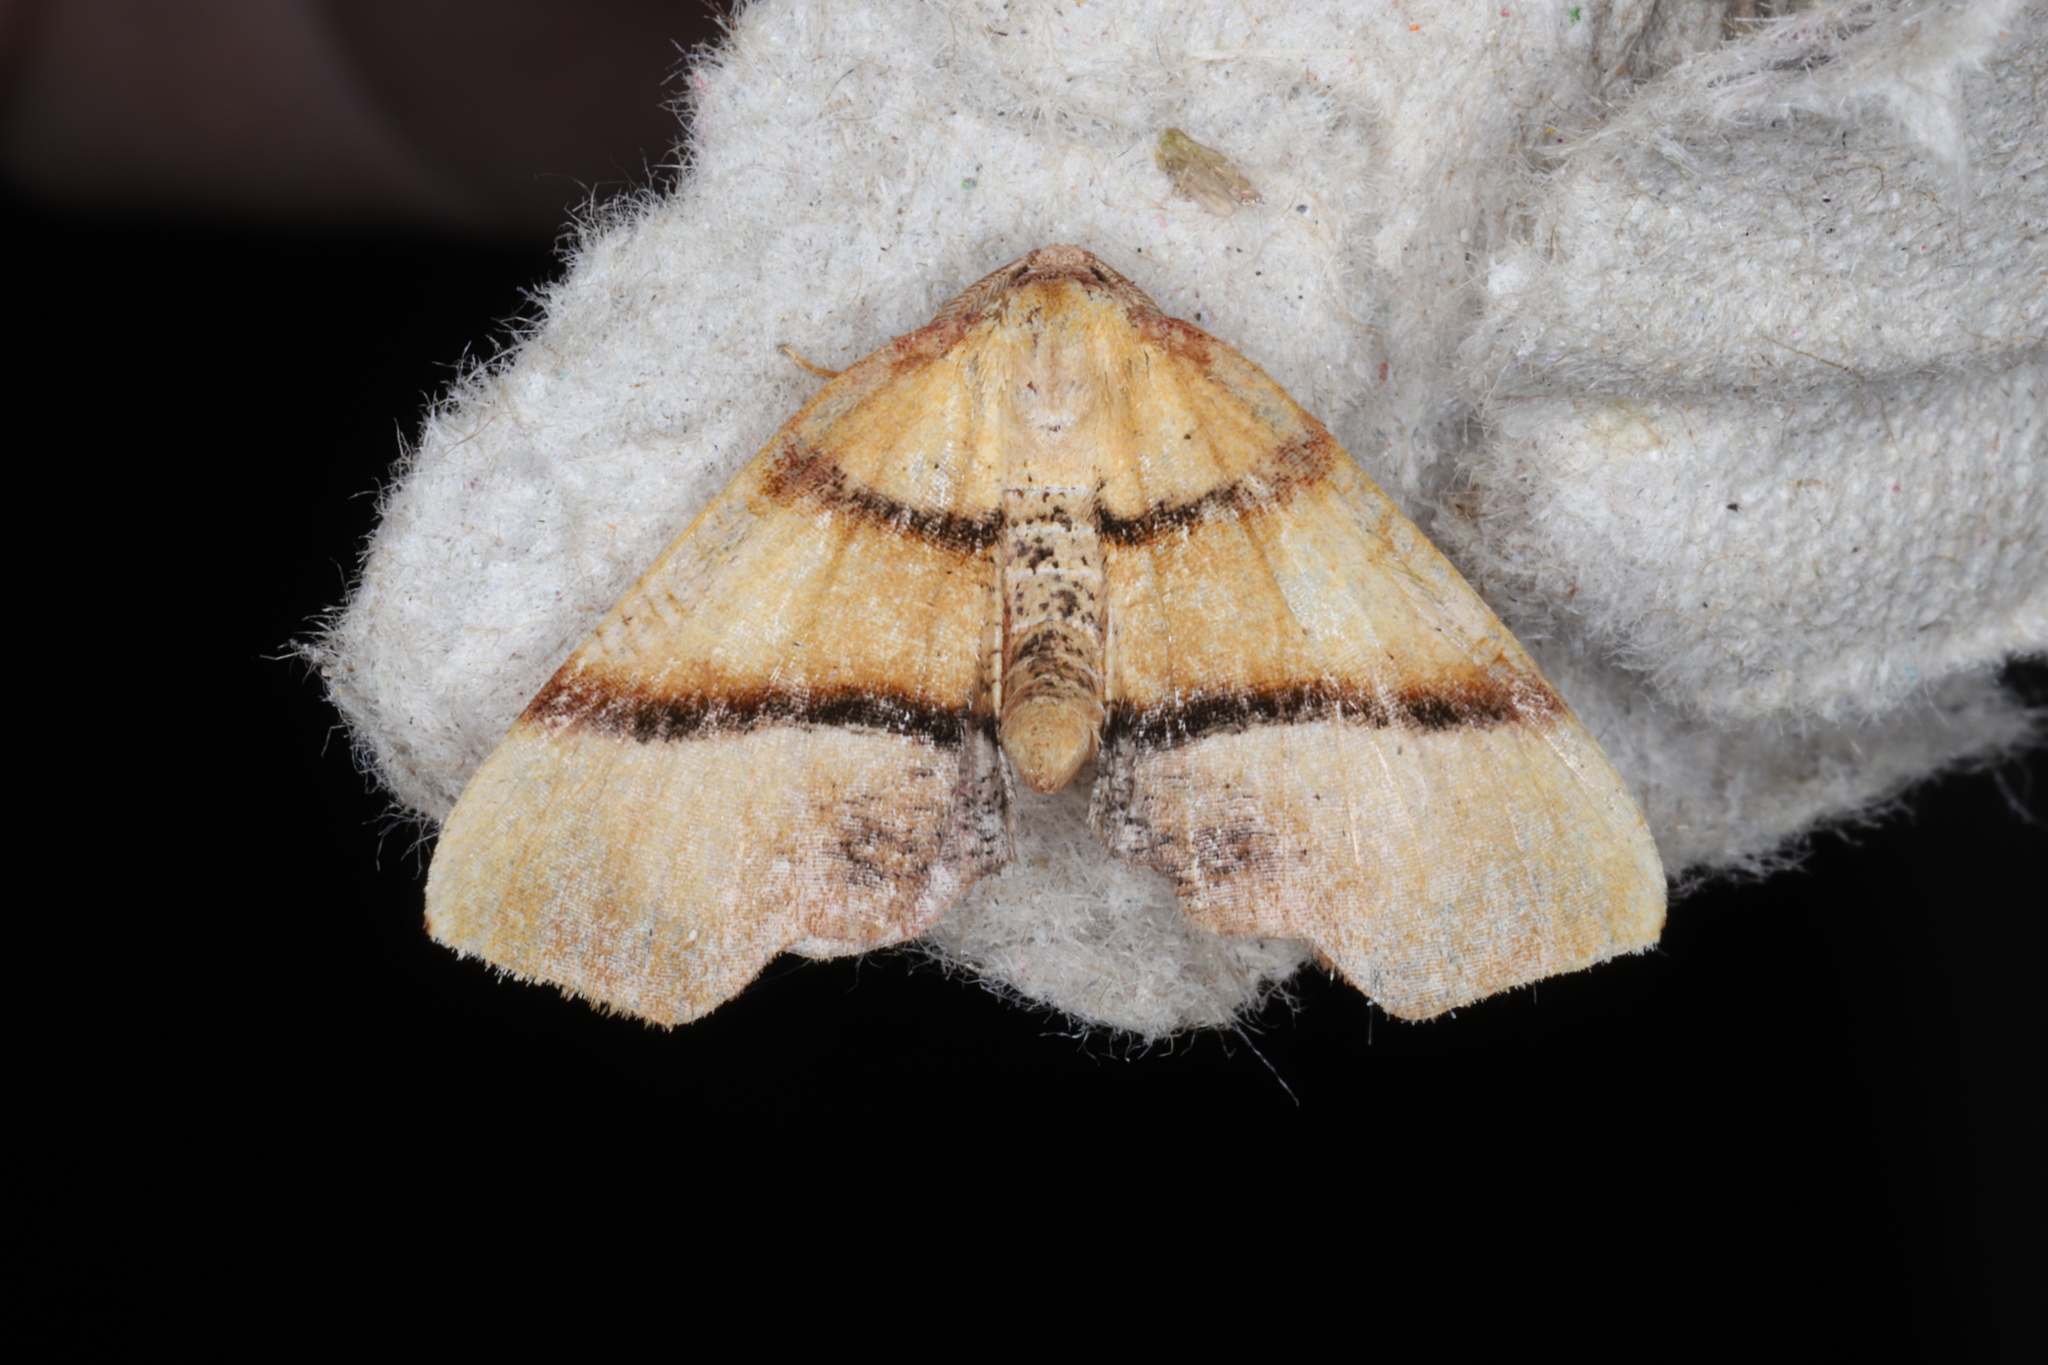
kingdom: Animalia
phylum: Arthropoda
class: Insecta
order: Lepidoptera
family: Geometridae
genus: Plagodis
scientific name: Plagodis phlogosaria
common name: Straight-lined plagodis
